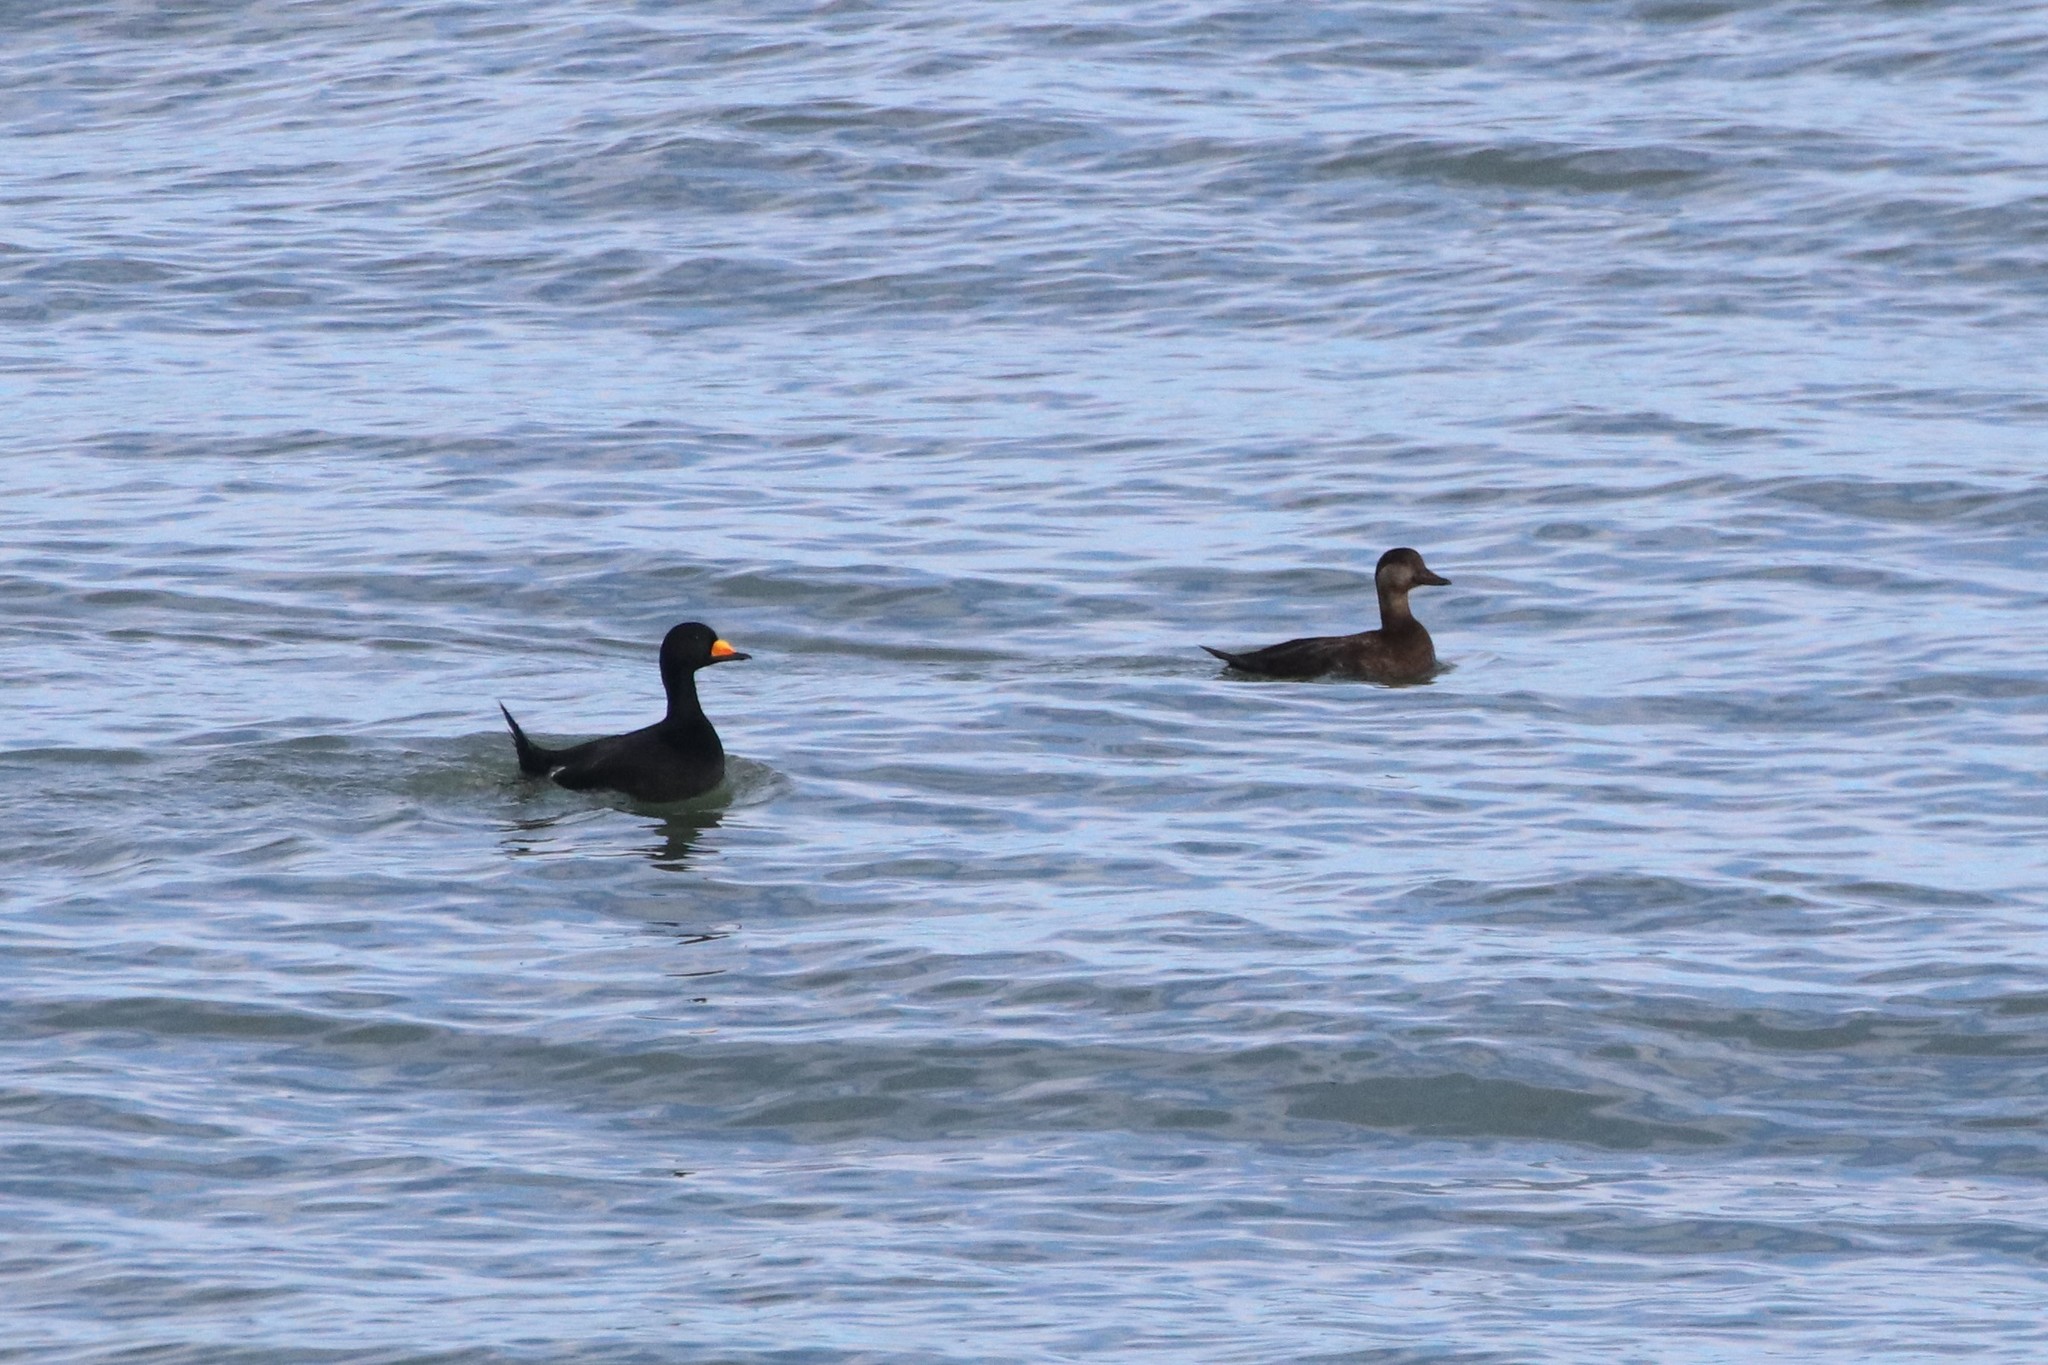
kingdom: Animalia
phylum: Chordata
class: Aves
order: Anseriformes
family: Anatidae
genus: Melanitta
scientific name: Melanitta americana
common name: Black scoter
